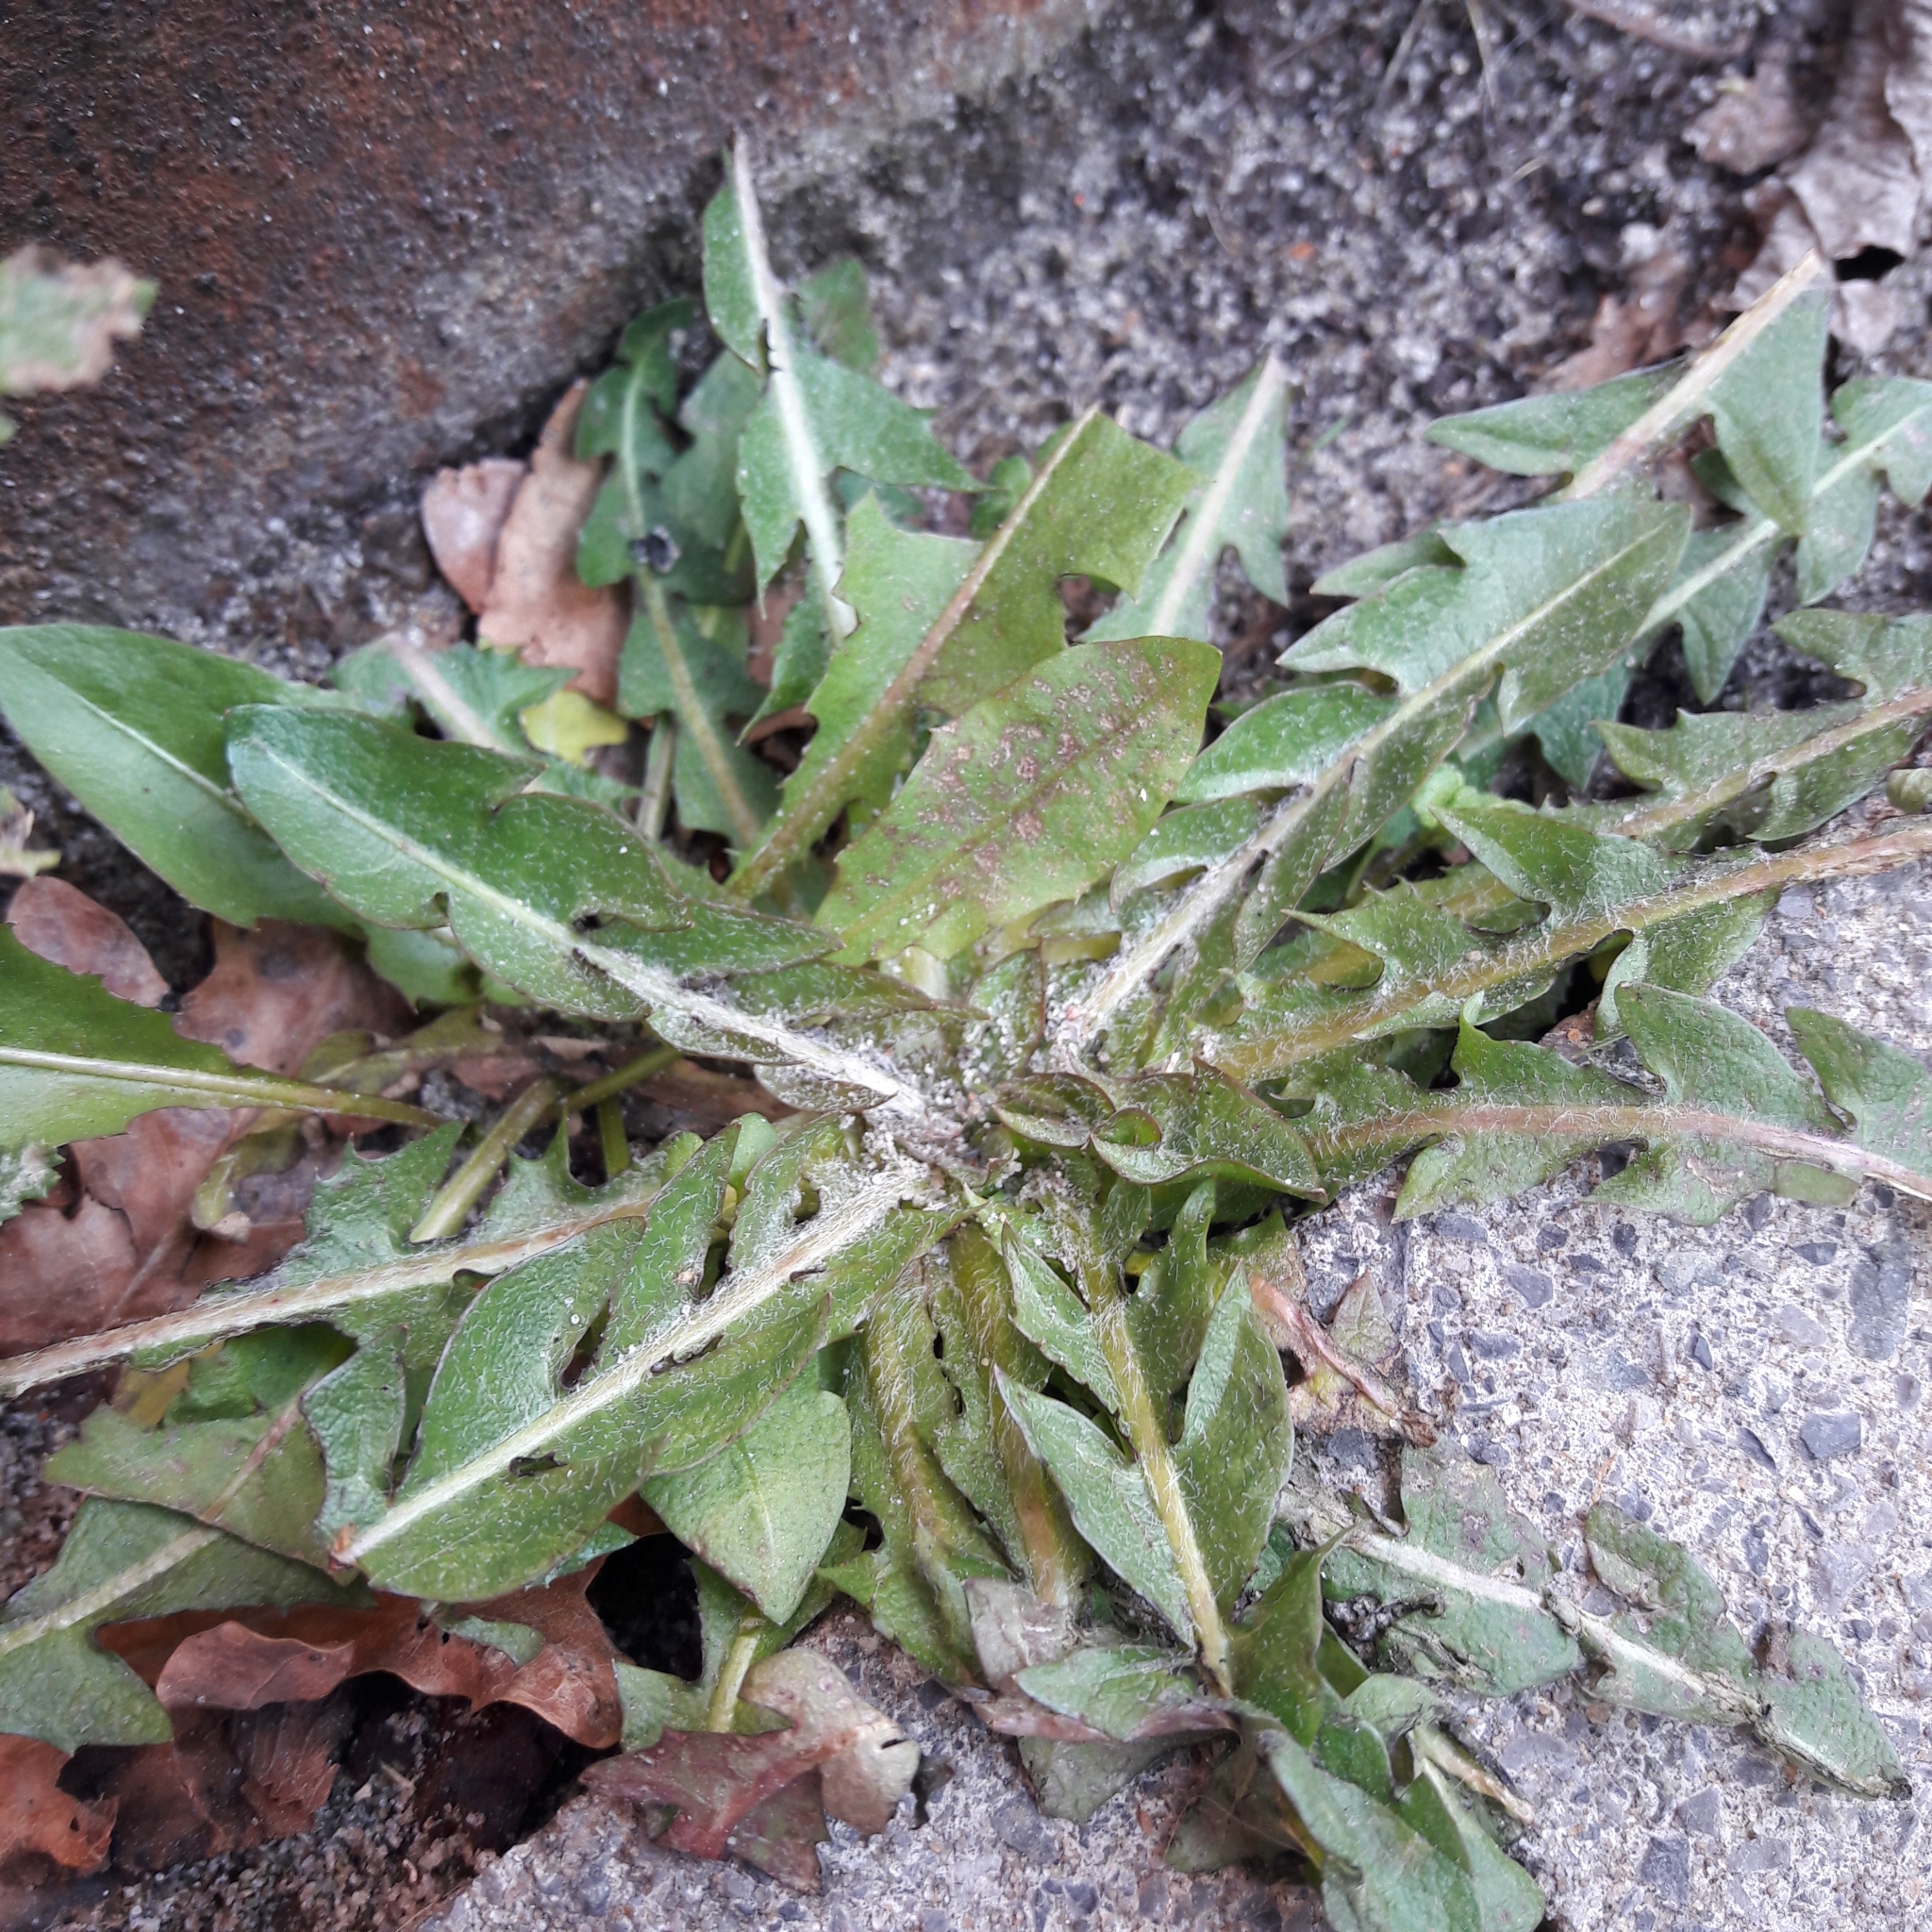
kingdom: Plantae
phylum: Tracheophyta
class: Magnoliopsida
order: Asterales
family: Asteraceae
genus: Taraxacum
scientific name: Taraxacum officinale
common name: Common dandelion
